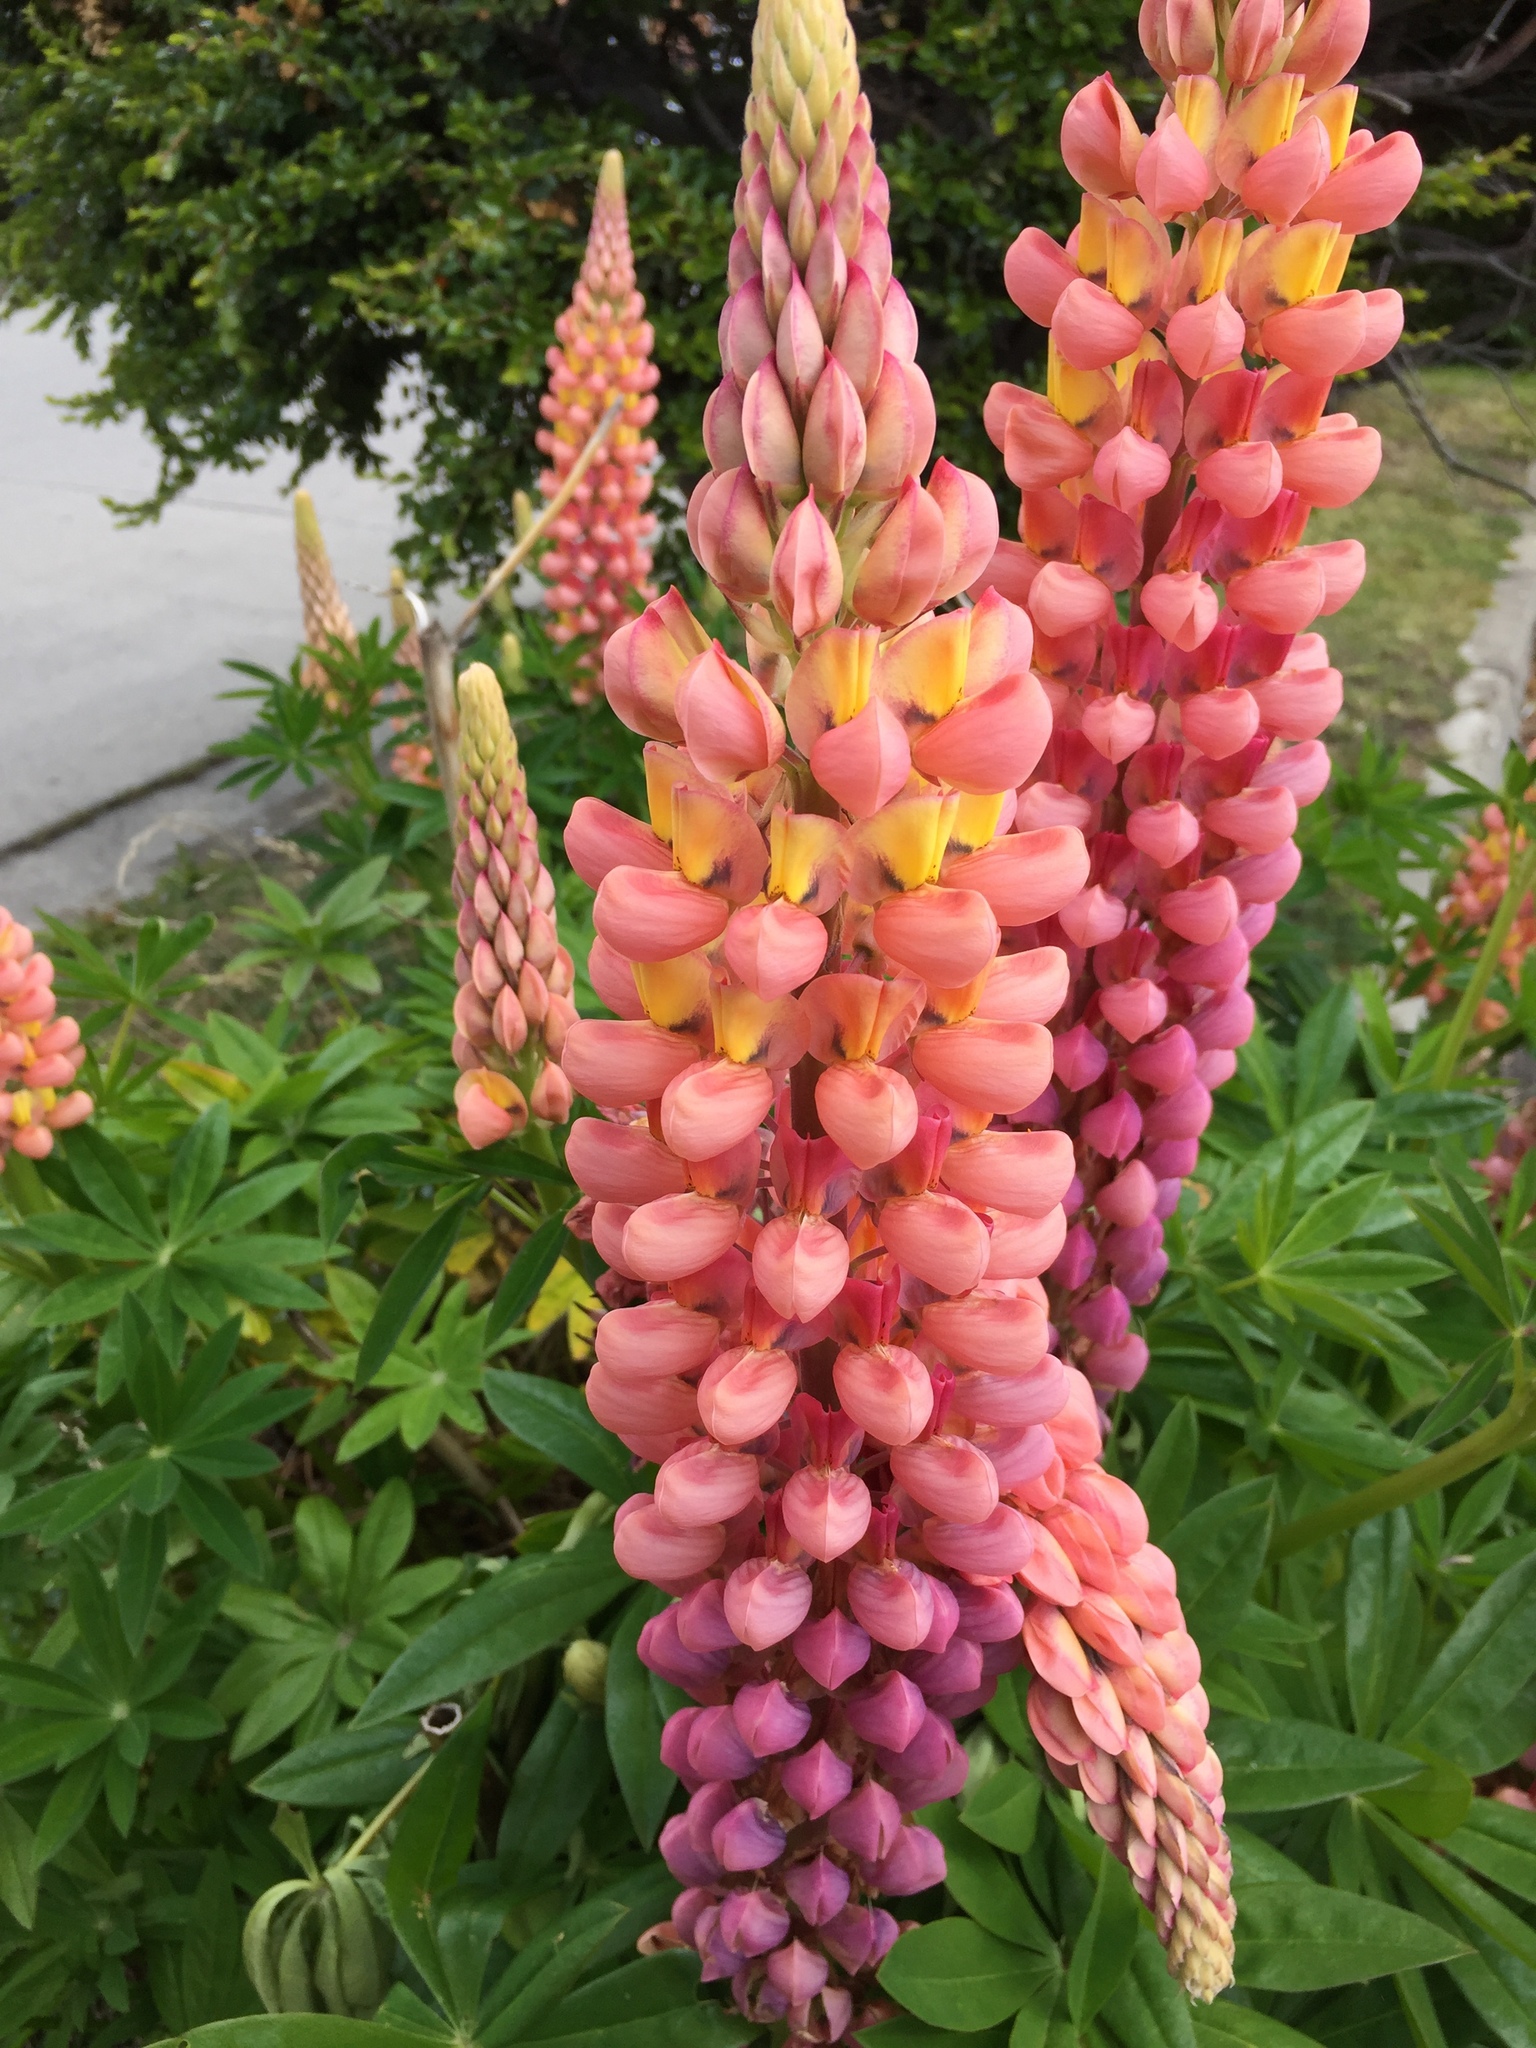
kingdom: Plantae
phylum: Tracheophyta
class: Magnoliopsida
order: Fabales
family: Fabaceae
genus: Lupinus
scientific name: Lupinus polyphyllus
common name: Garden lupin
